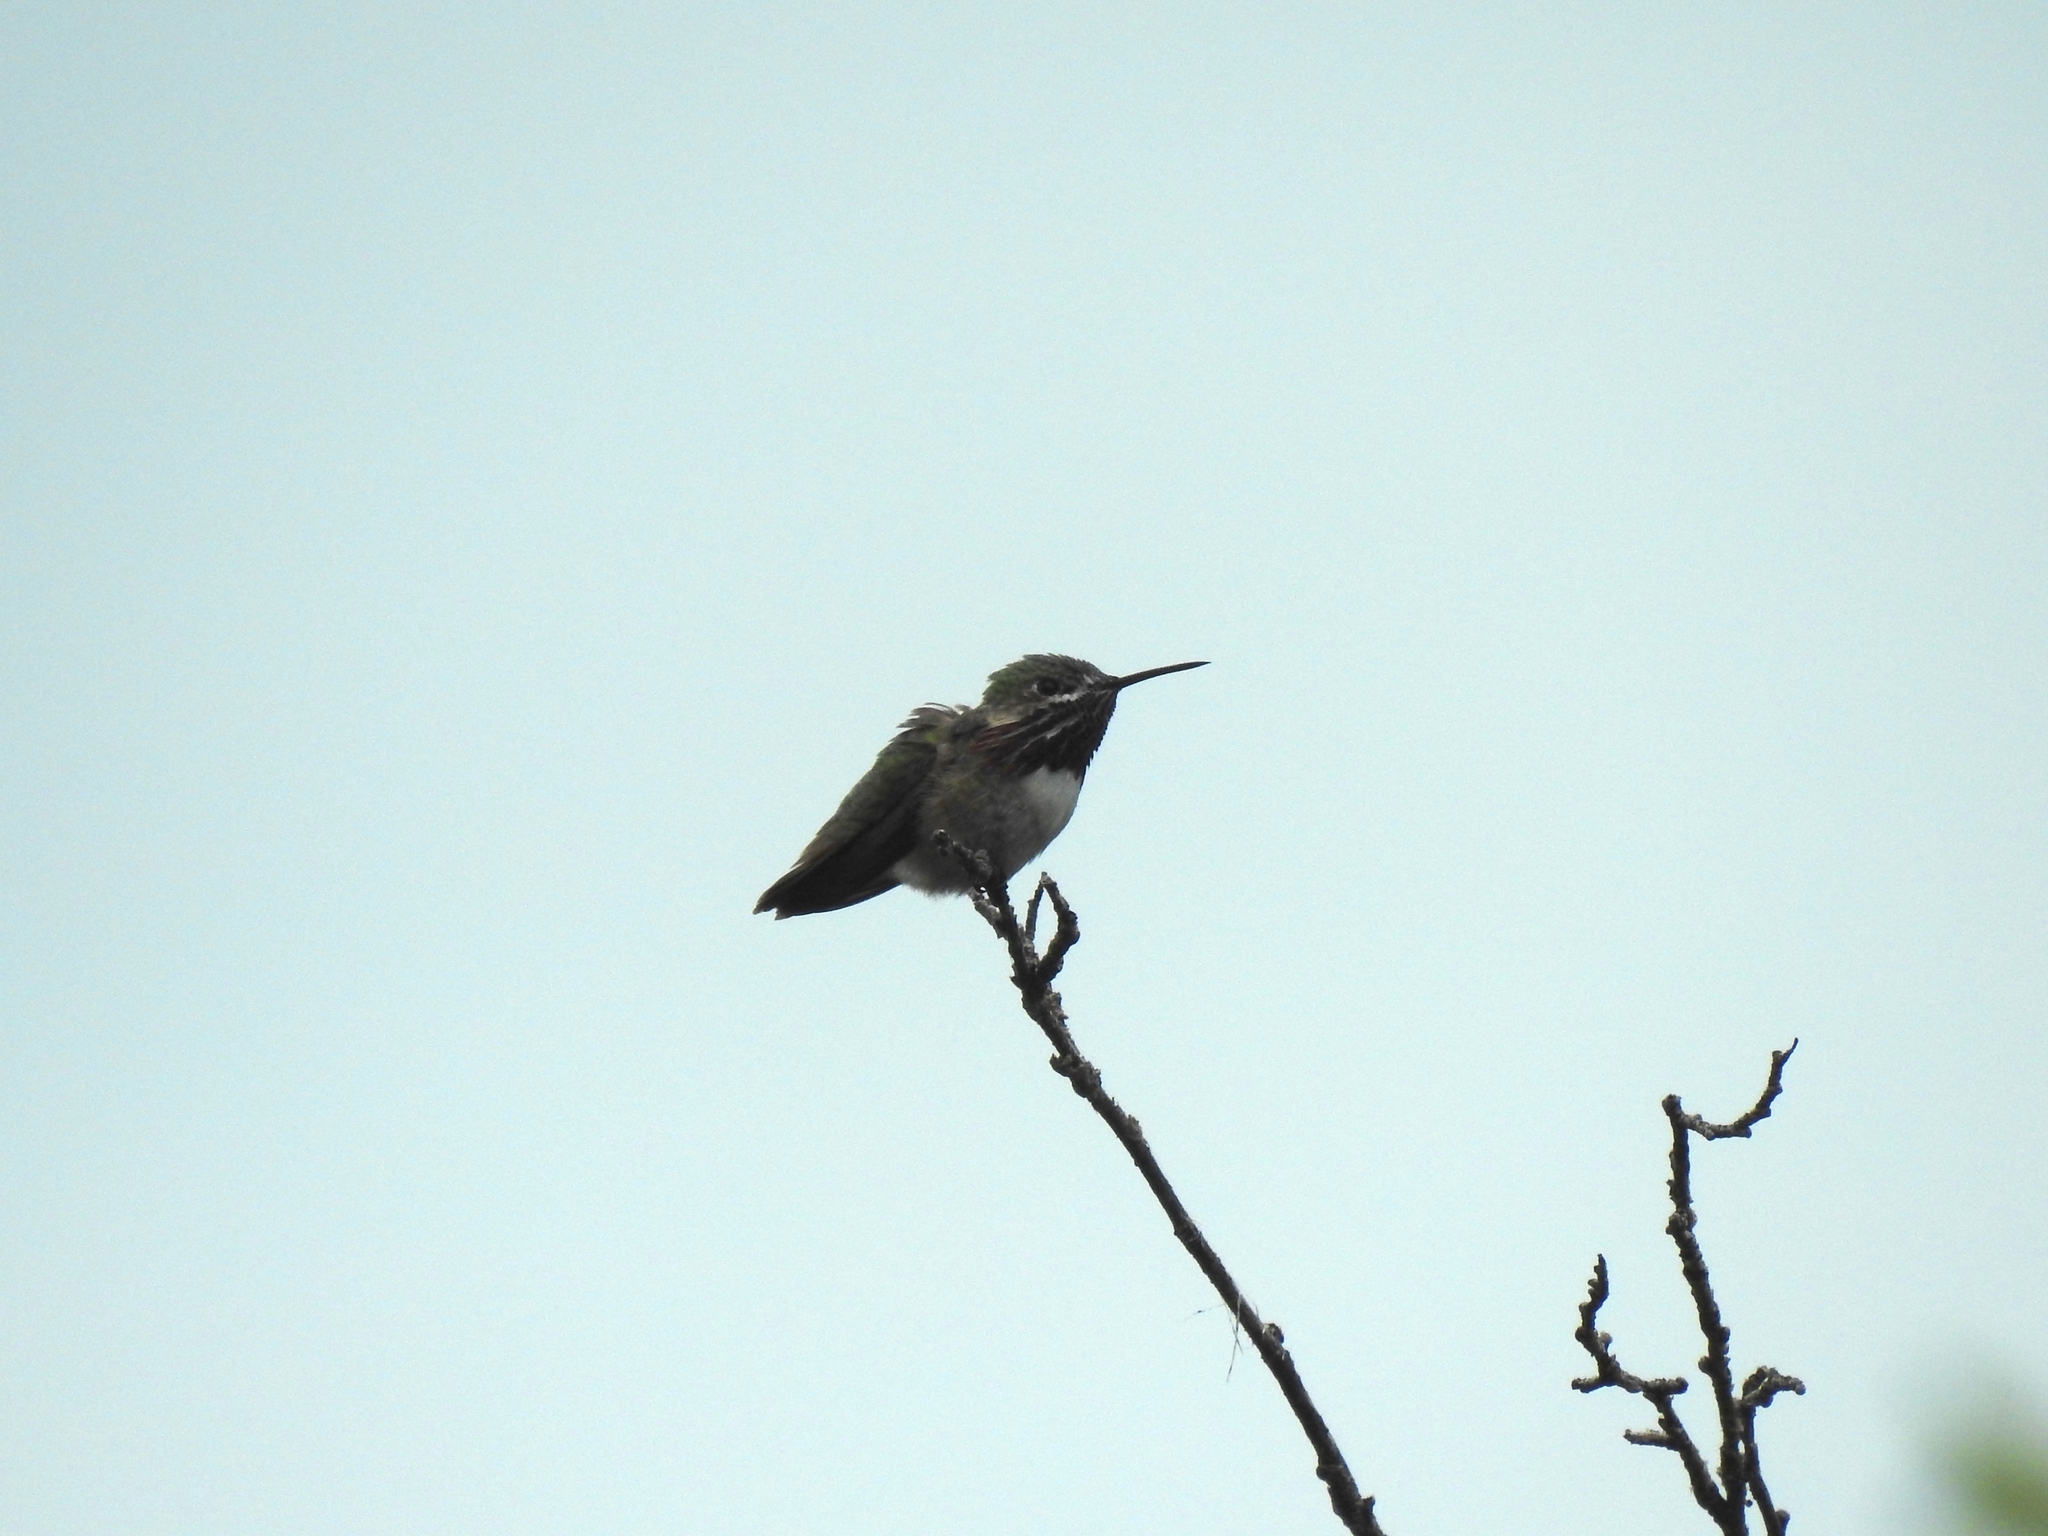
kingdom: Animalia
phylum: Chordata
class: Aves
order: Apodiformes
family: Trochilidae
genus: Selasphorus
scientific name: Selasphorus calliope
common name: Calliope hummingbird
